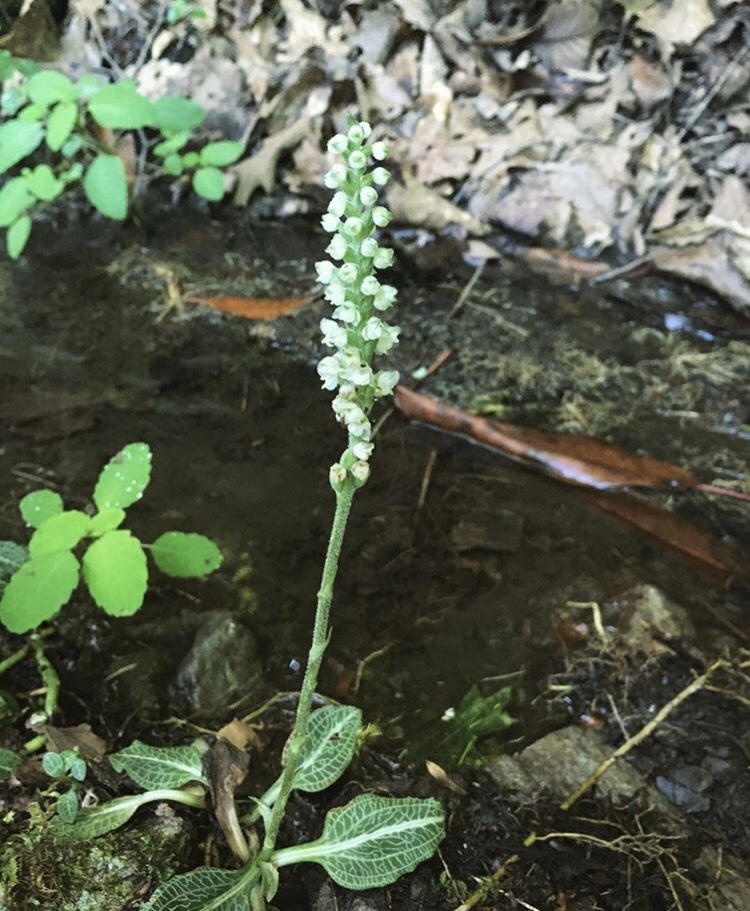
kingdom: Plantae
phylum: Tracheophyta
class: Liliopsida
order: Asparagales
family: Orchidaceae
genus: Goodyera
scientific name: Goodyera pubescens
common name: Downy rattlesnake-plantain
